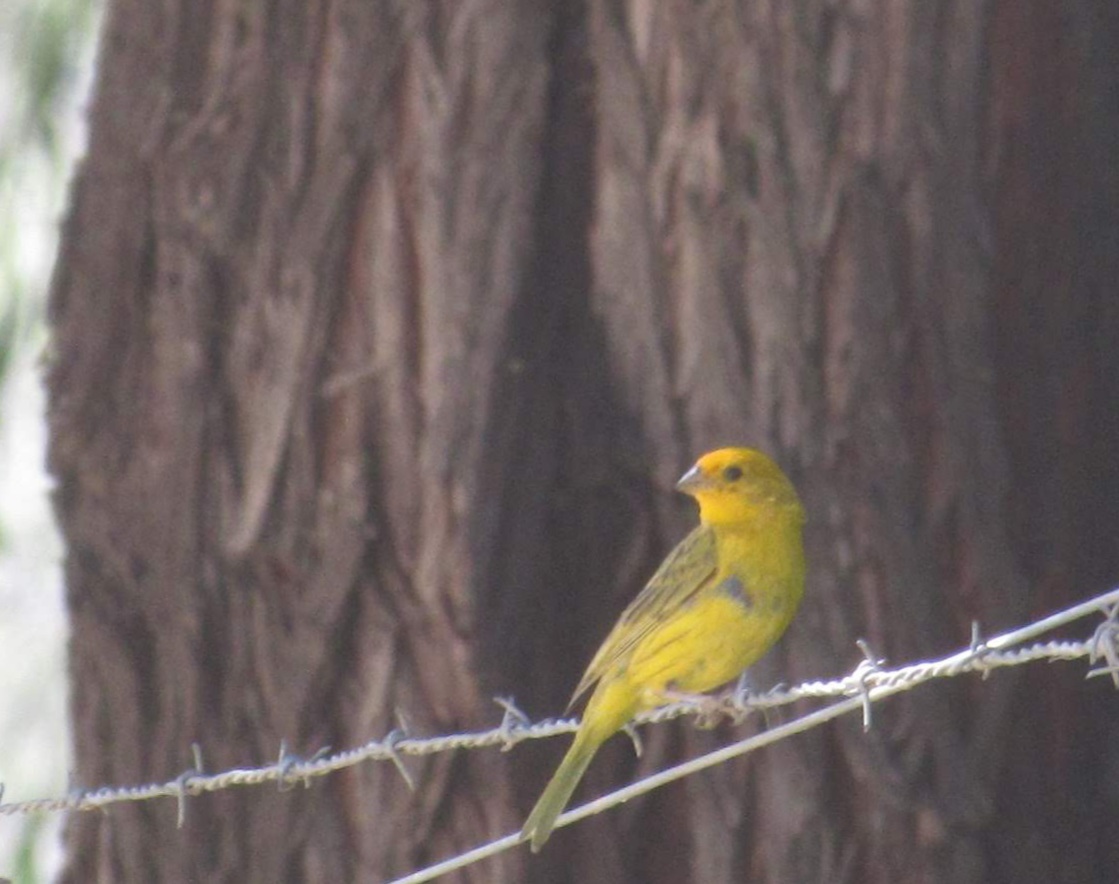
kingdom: Animalia
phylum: Chordata
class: Aves
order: Passeriformes
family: Thraupidae
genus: Sicalis
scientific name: Sicalis flaveola
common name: Saffron finch
